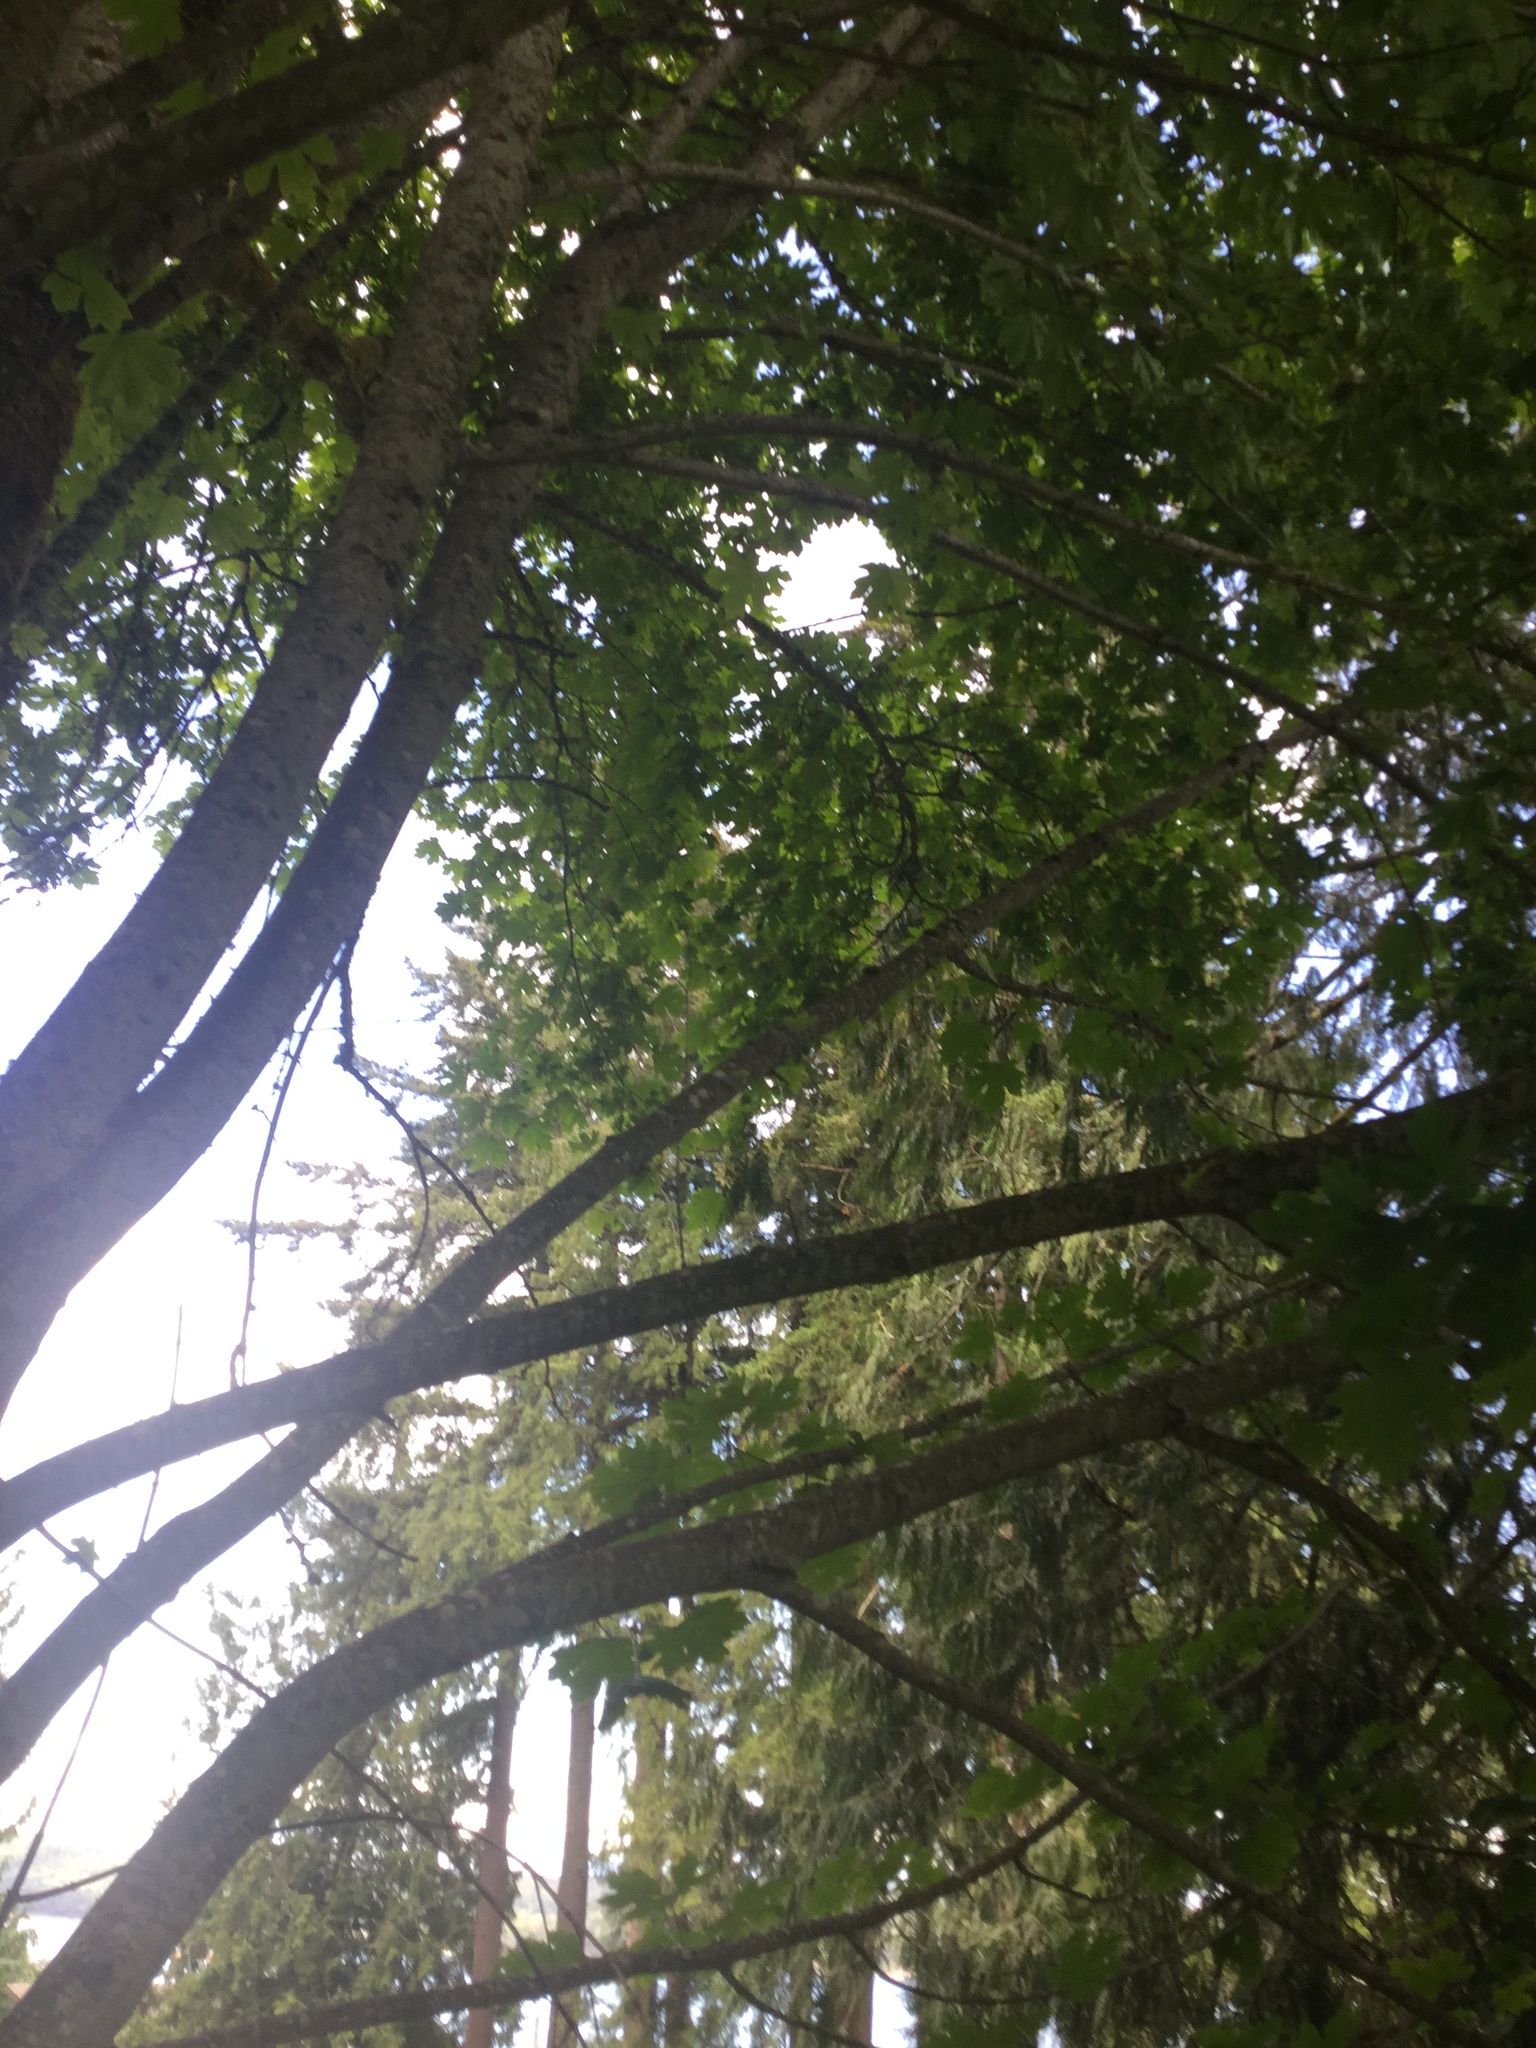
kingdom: Plantae
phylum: Tracheophyta
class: Magnoliopsida
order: Sapindales
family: Sapindaceae
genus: Acer
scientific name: Acer macrophyllum
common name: Oregon maple
